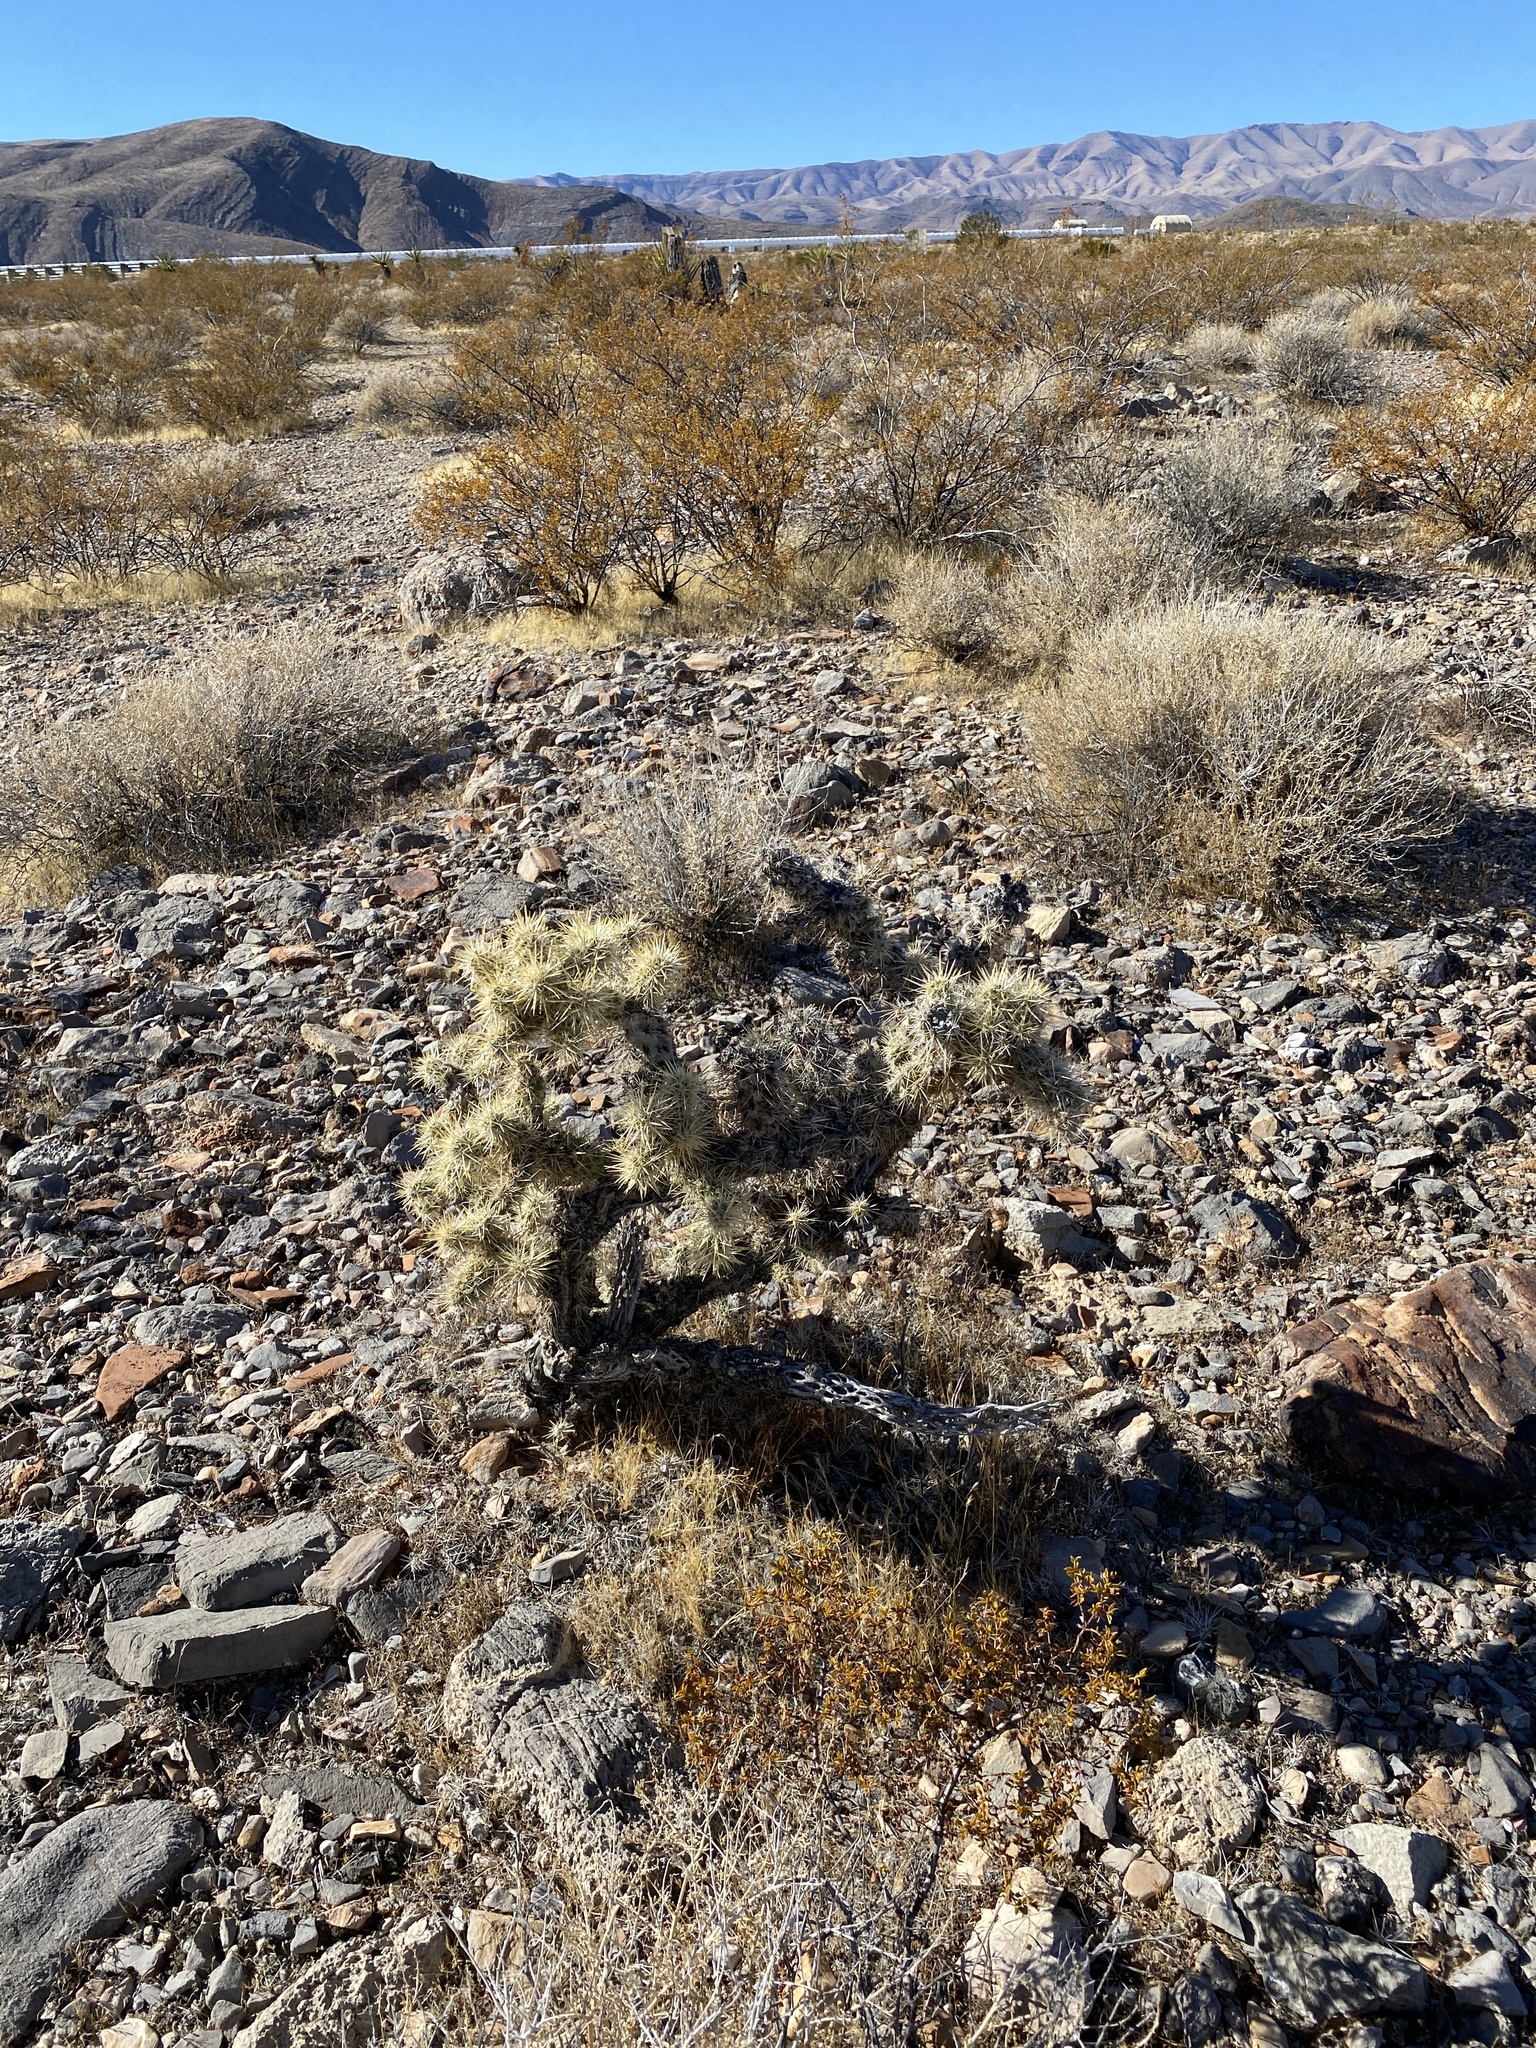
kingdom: Plantae
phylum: Tracheophyta
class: Magnoliopsida
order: Caryophyllales
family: Cactaceae
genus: Cylindropuntia
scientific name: Cylindropuntia echinocarpa
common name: Ground cholla
